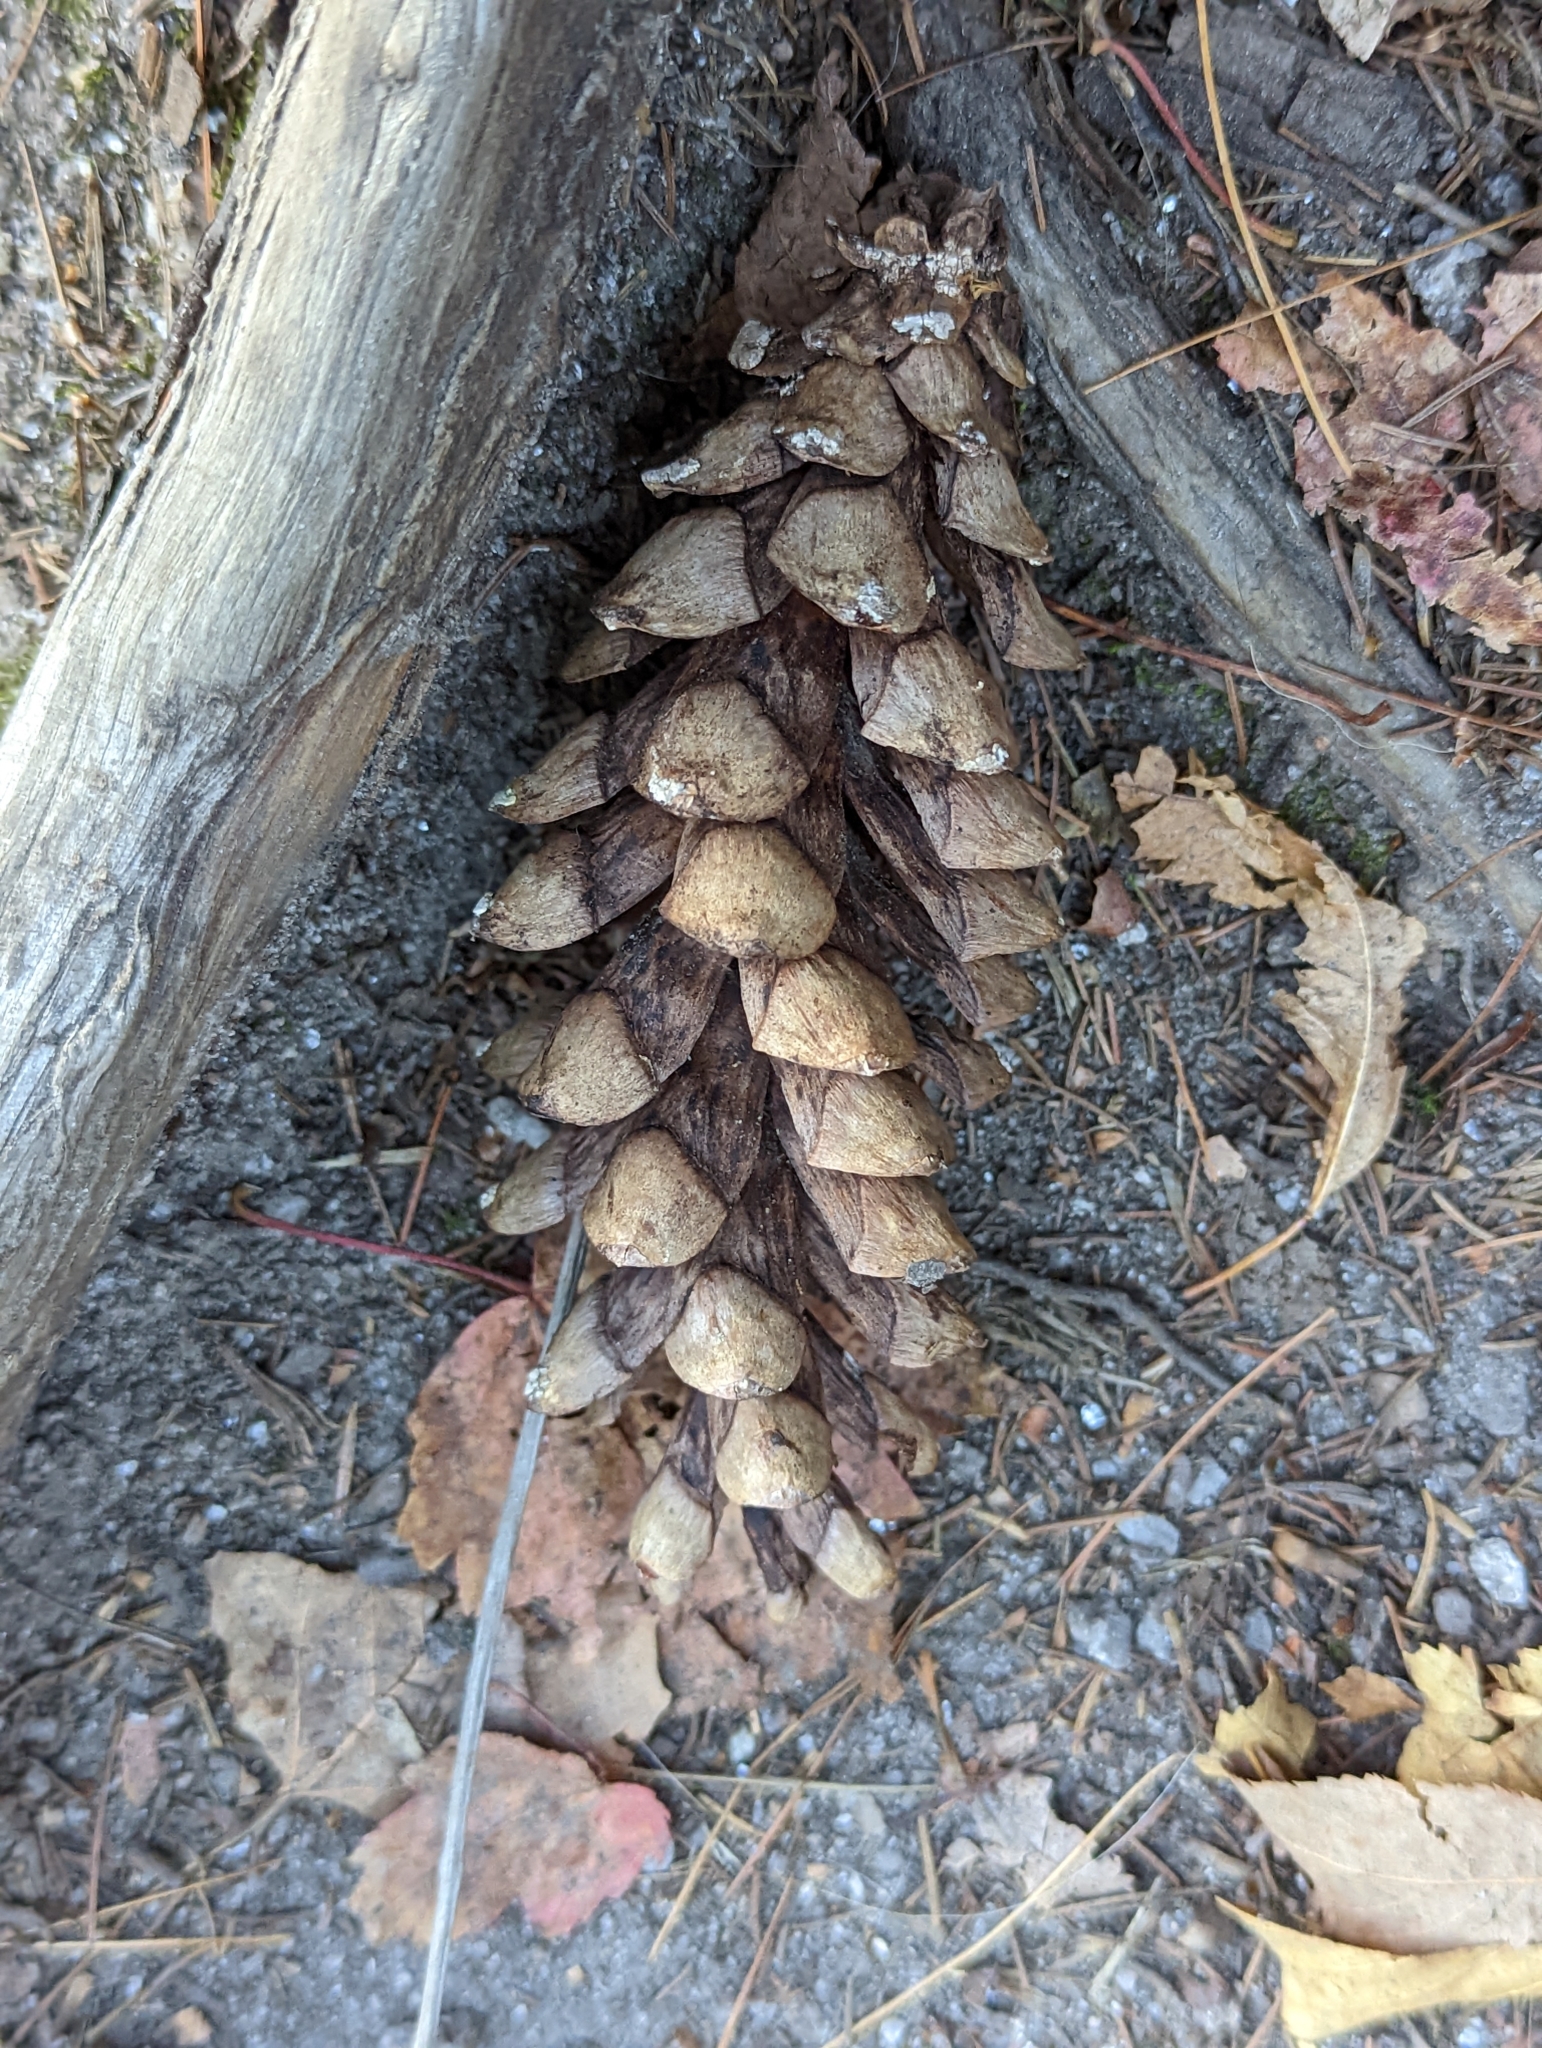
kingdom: Plantae
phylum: Tracheophyta
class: Pinopsida
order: Pinales
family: Pinaceae
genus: Pinus
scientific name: Pinus strobus
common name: Weymouth pine
